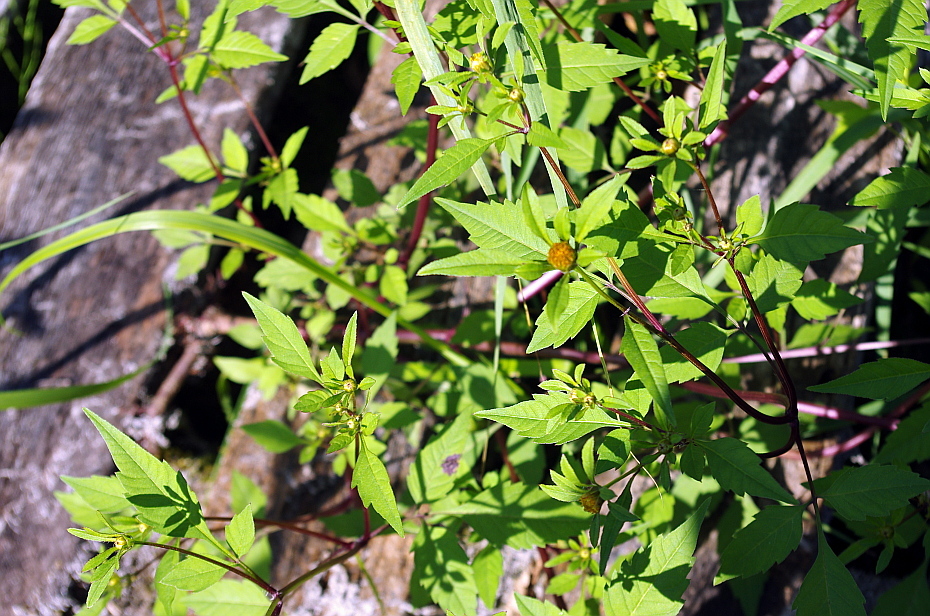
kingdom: Plantae
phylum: Tracheophyta
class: Magnoliopsida
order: Asterales
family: Asteraceae
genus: Bidens
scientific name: Bidens frondosa
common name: Beggarticks
